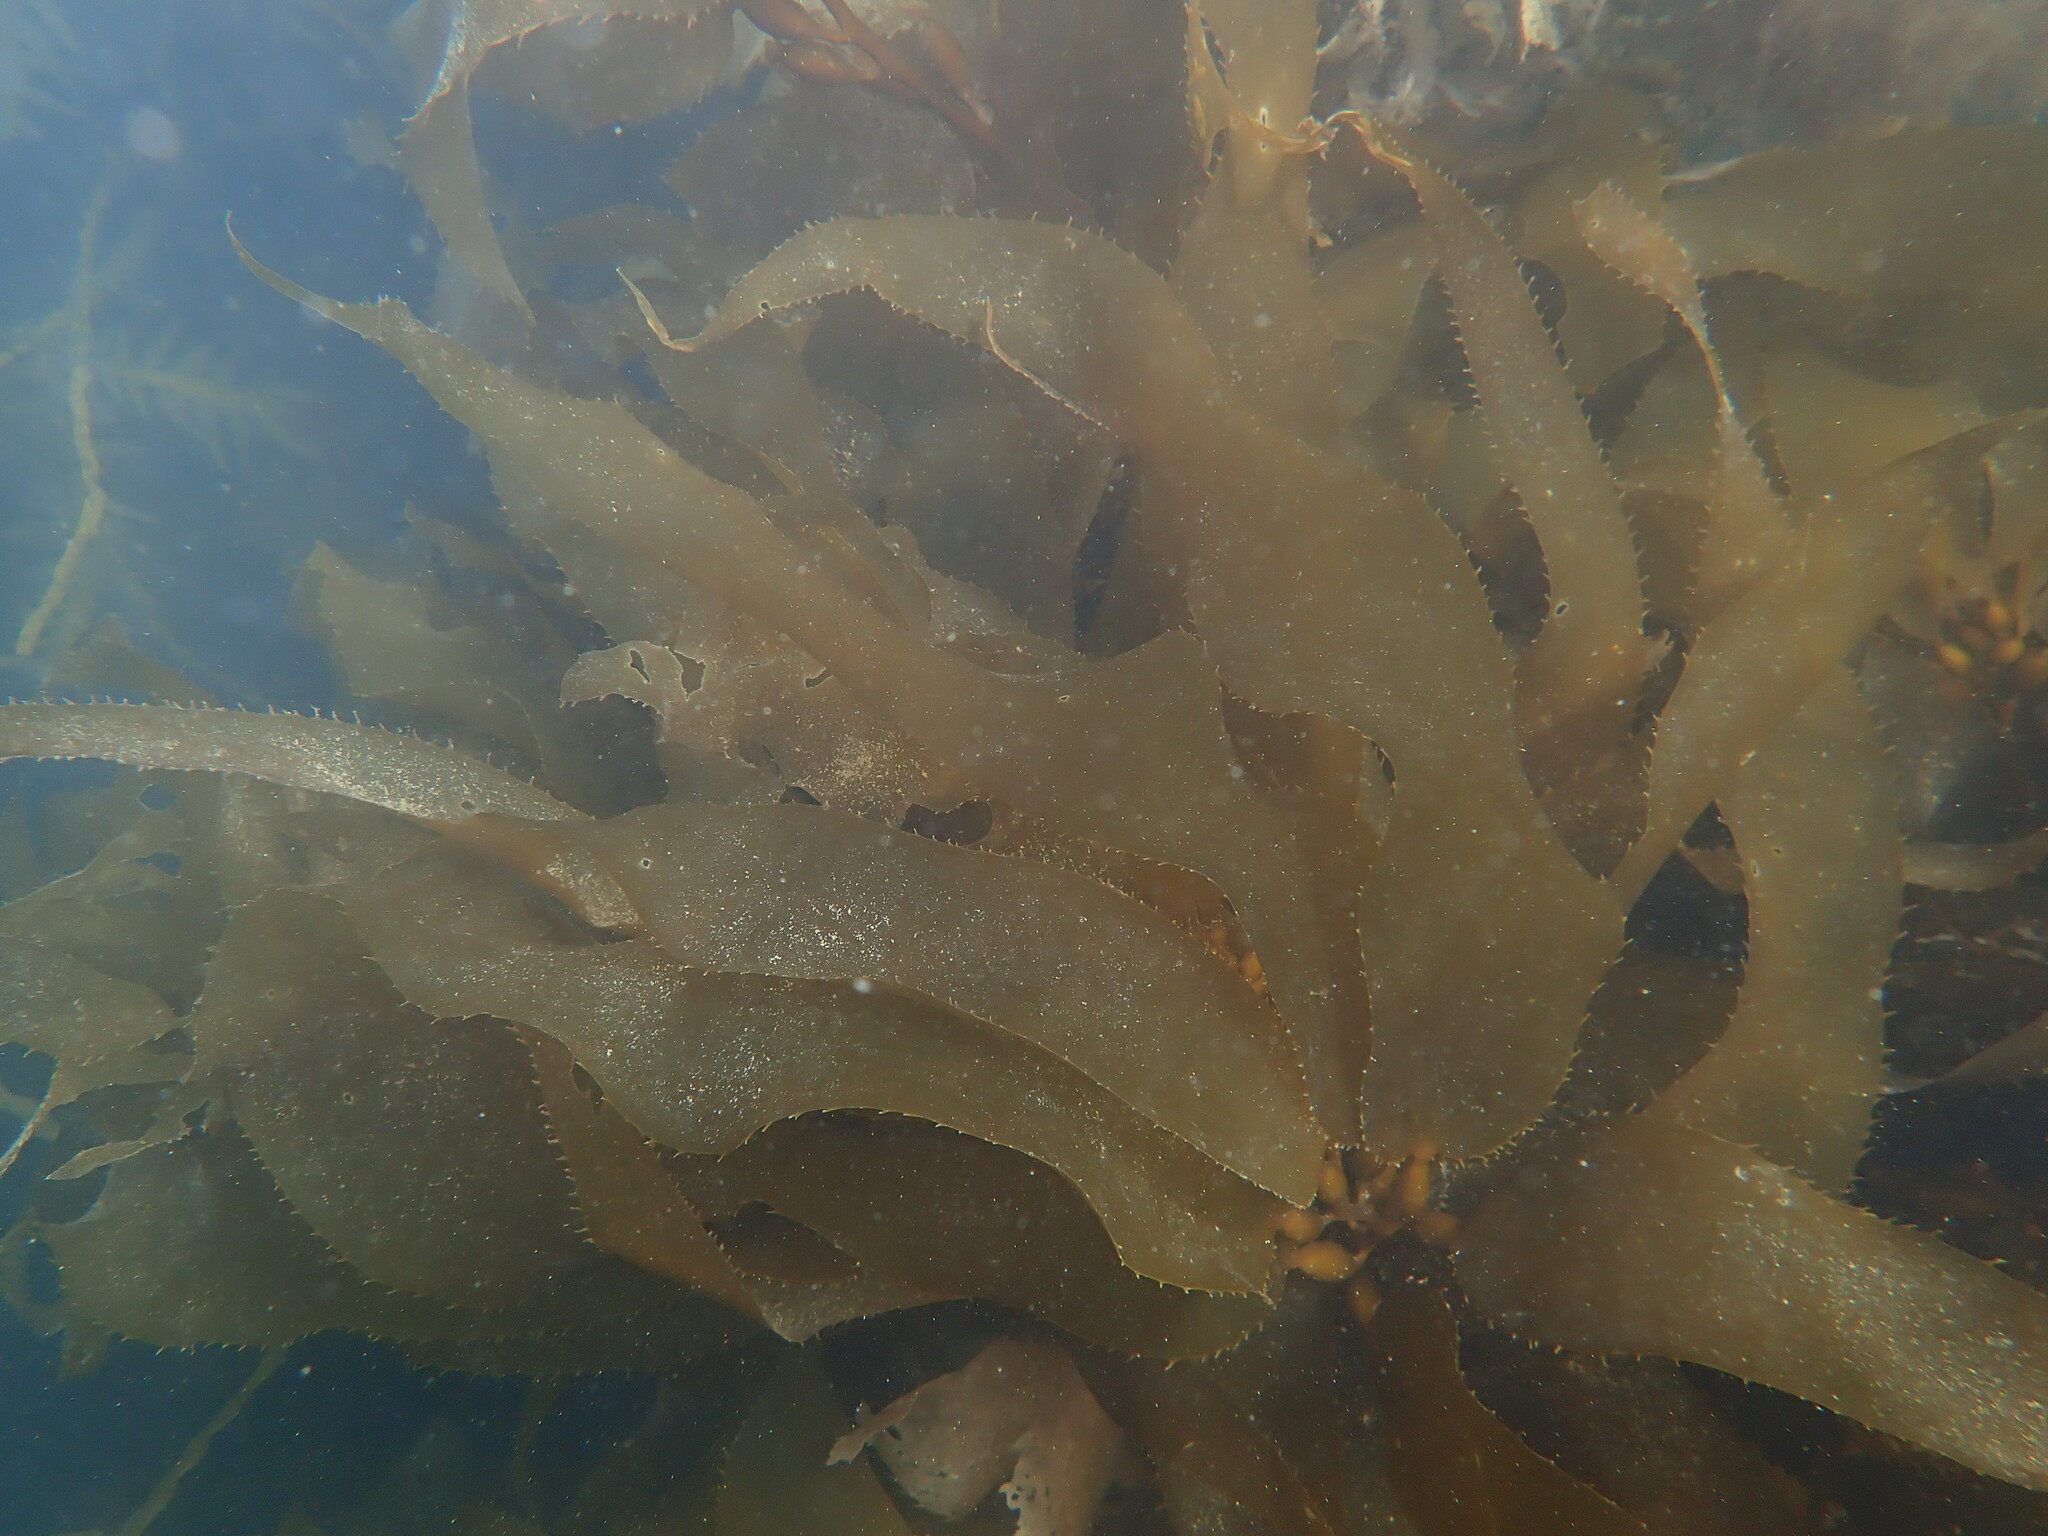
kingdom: Chromista
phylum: Ochrophyta
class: Phaeophyceae
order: Laminariales
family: Laminariaceae
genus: Macrocystis
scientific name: Macrocystis pyrifera
